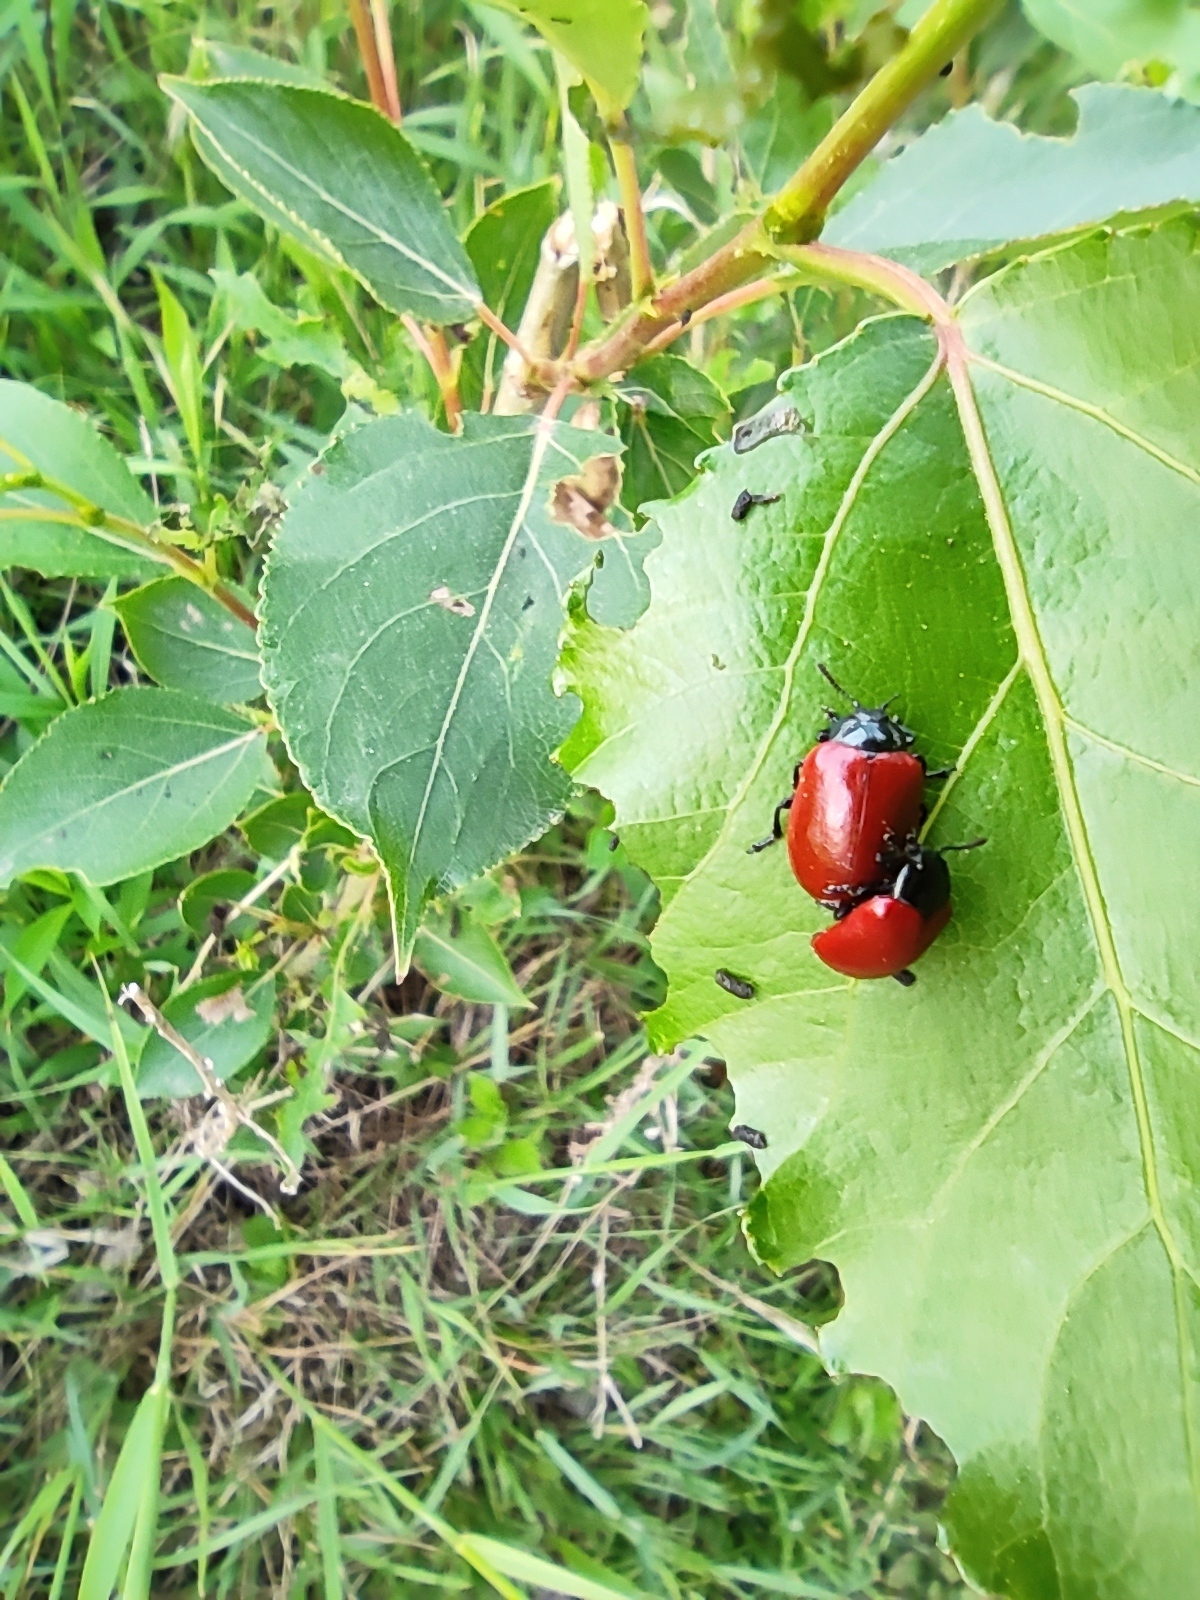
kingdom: Animalia
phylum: Arthropoda
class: Insecta
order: Coleoptera
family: Chrysomelidae
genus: Chrysomela
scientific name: Chrysomela populi
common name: Red poplar leaf beetle
